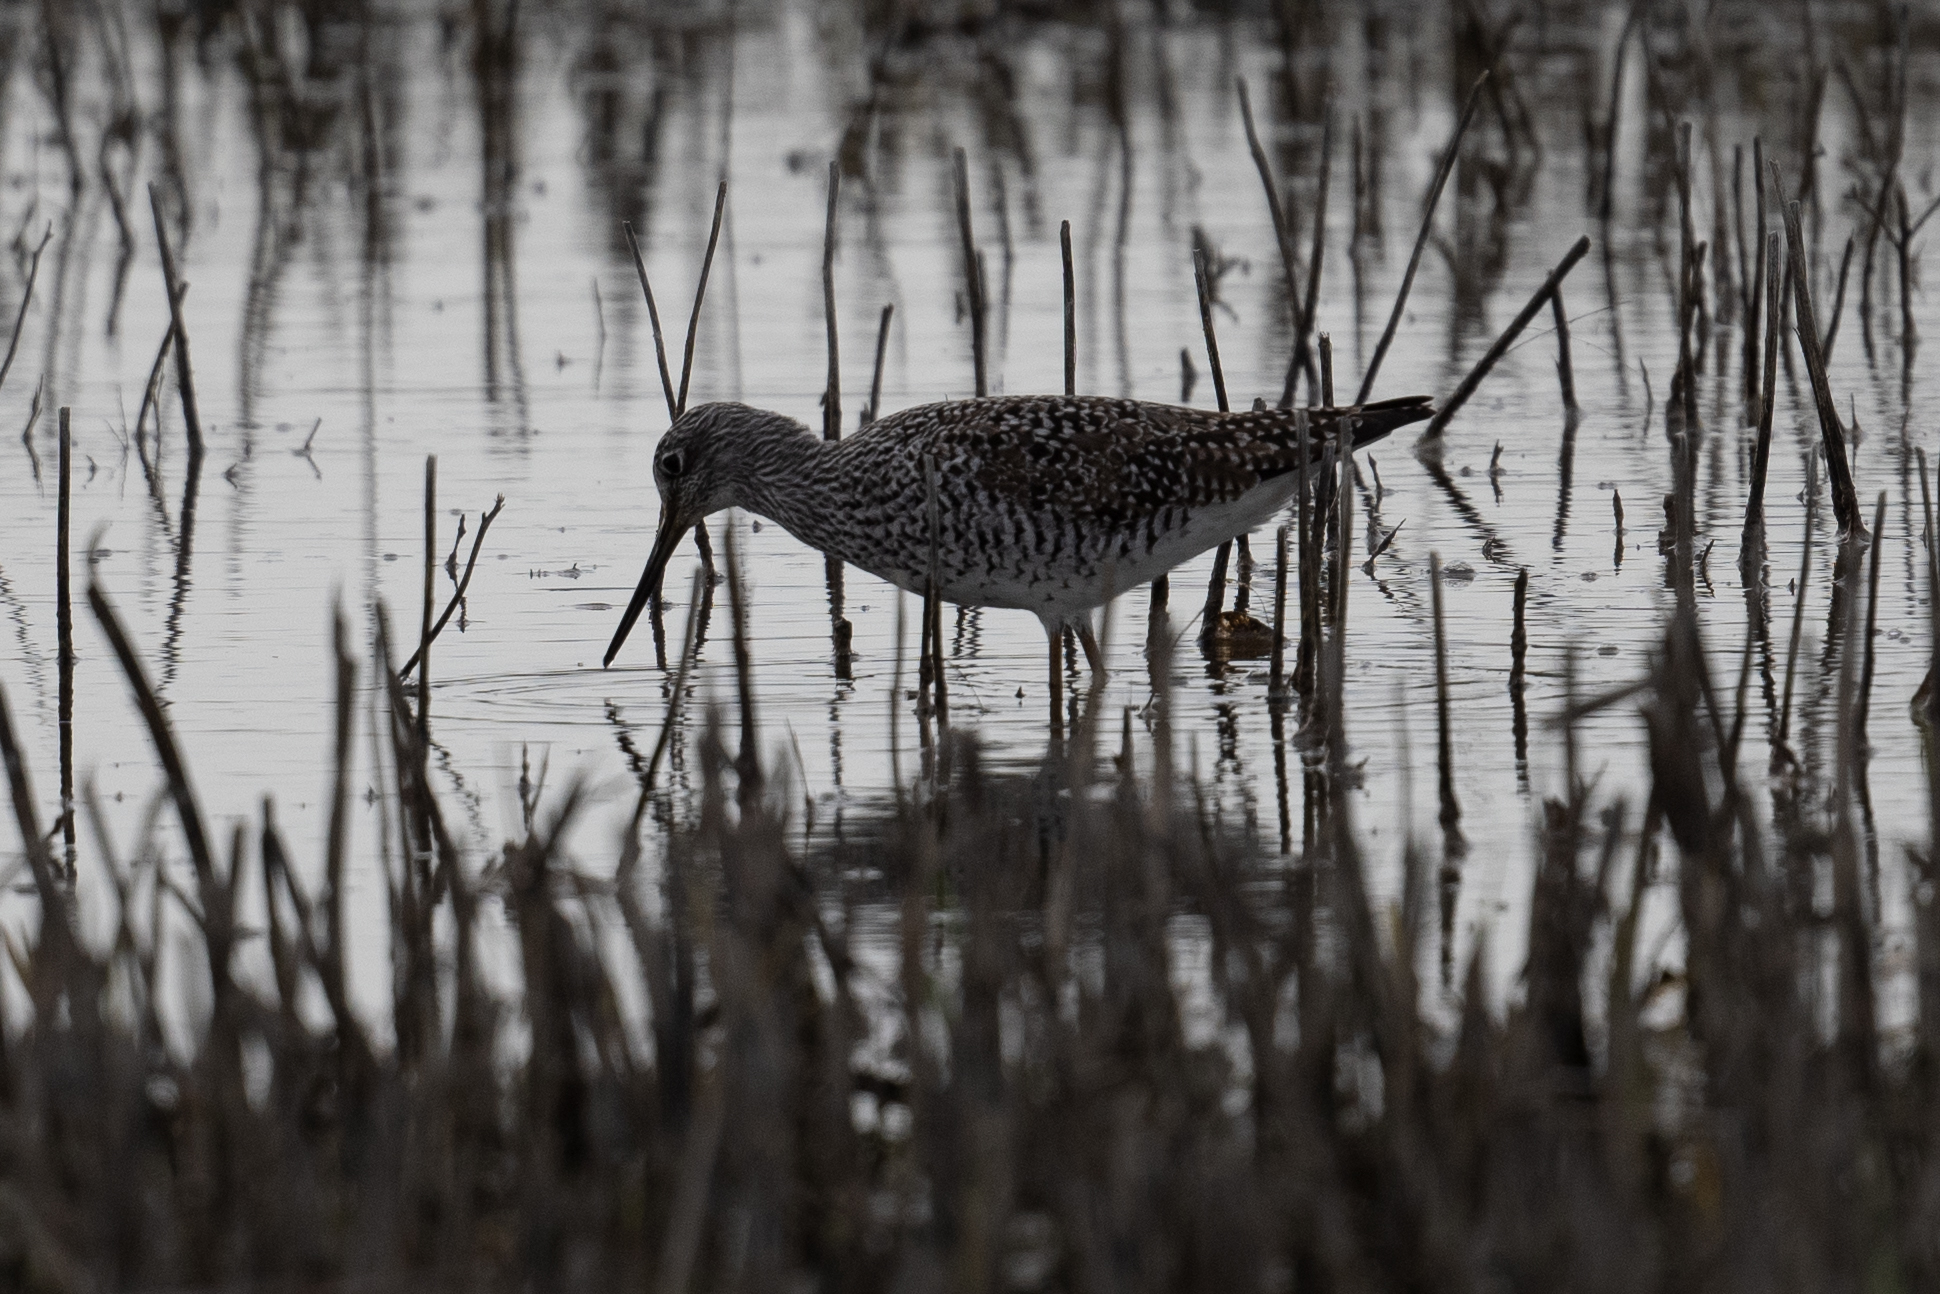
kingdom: Animalia
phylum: Chordata
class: Aves
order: Charadriiformes
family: Scolopacidae
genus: Tringa
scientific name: Tringa melanoleuca
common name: Greater yellowlegs
